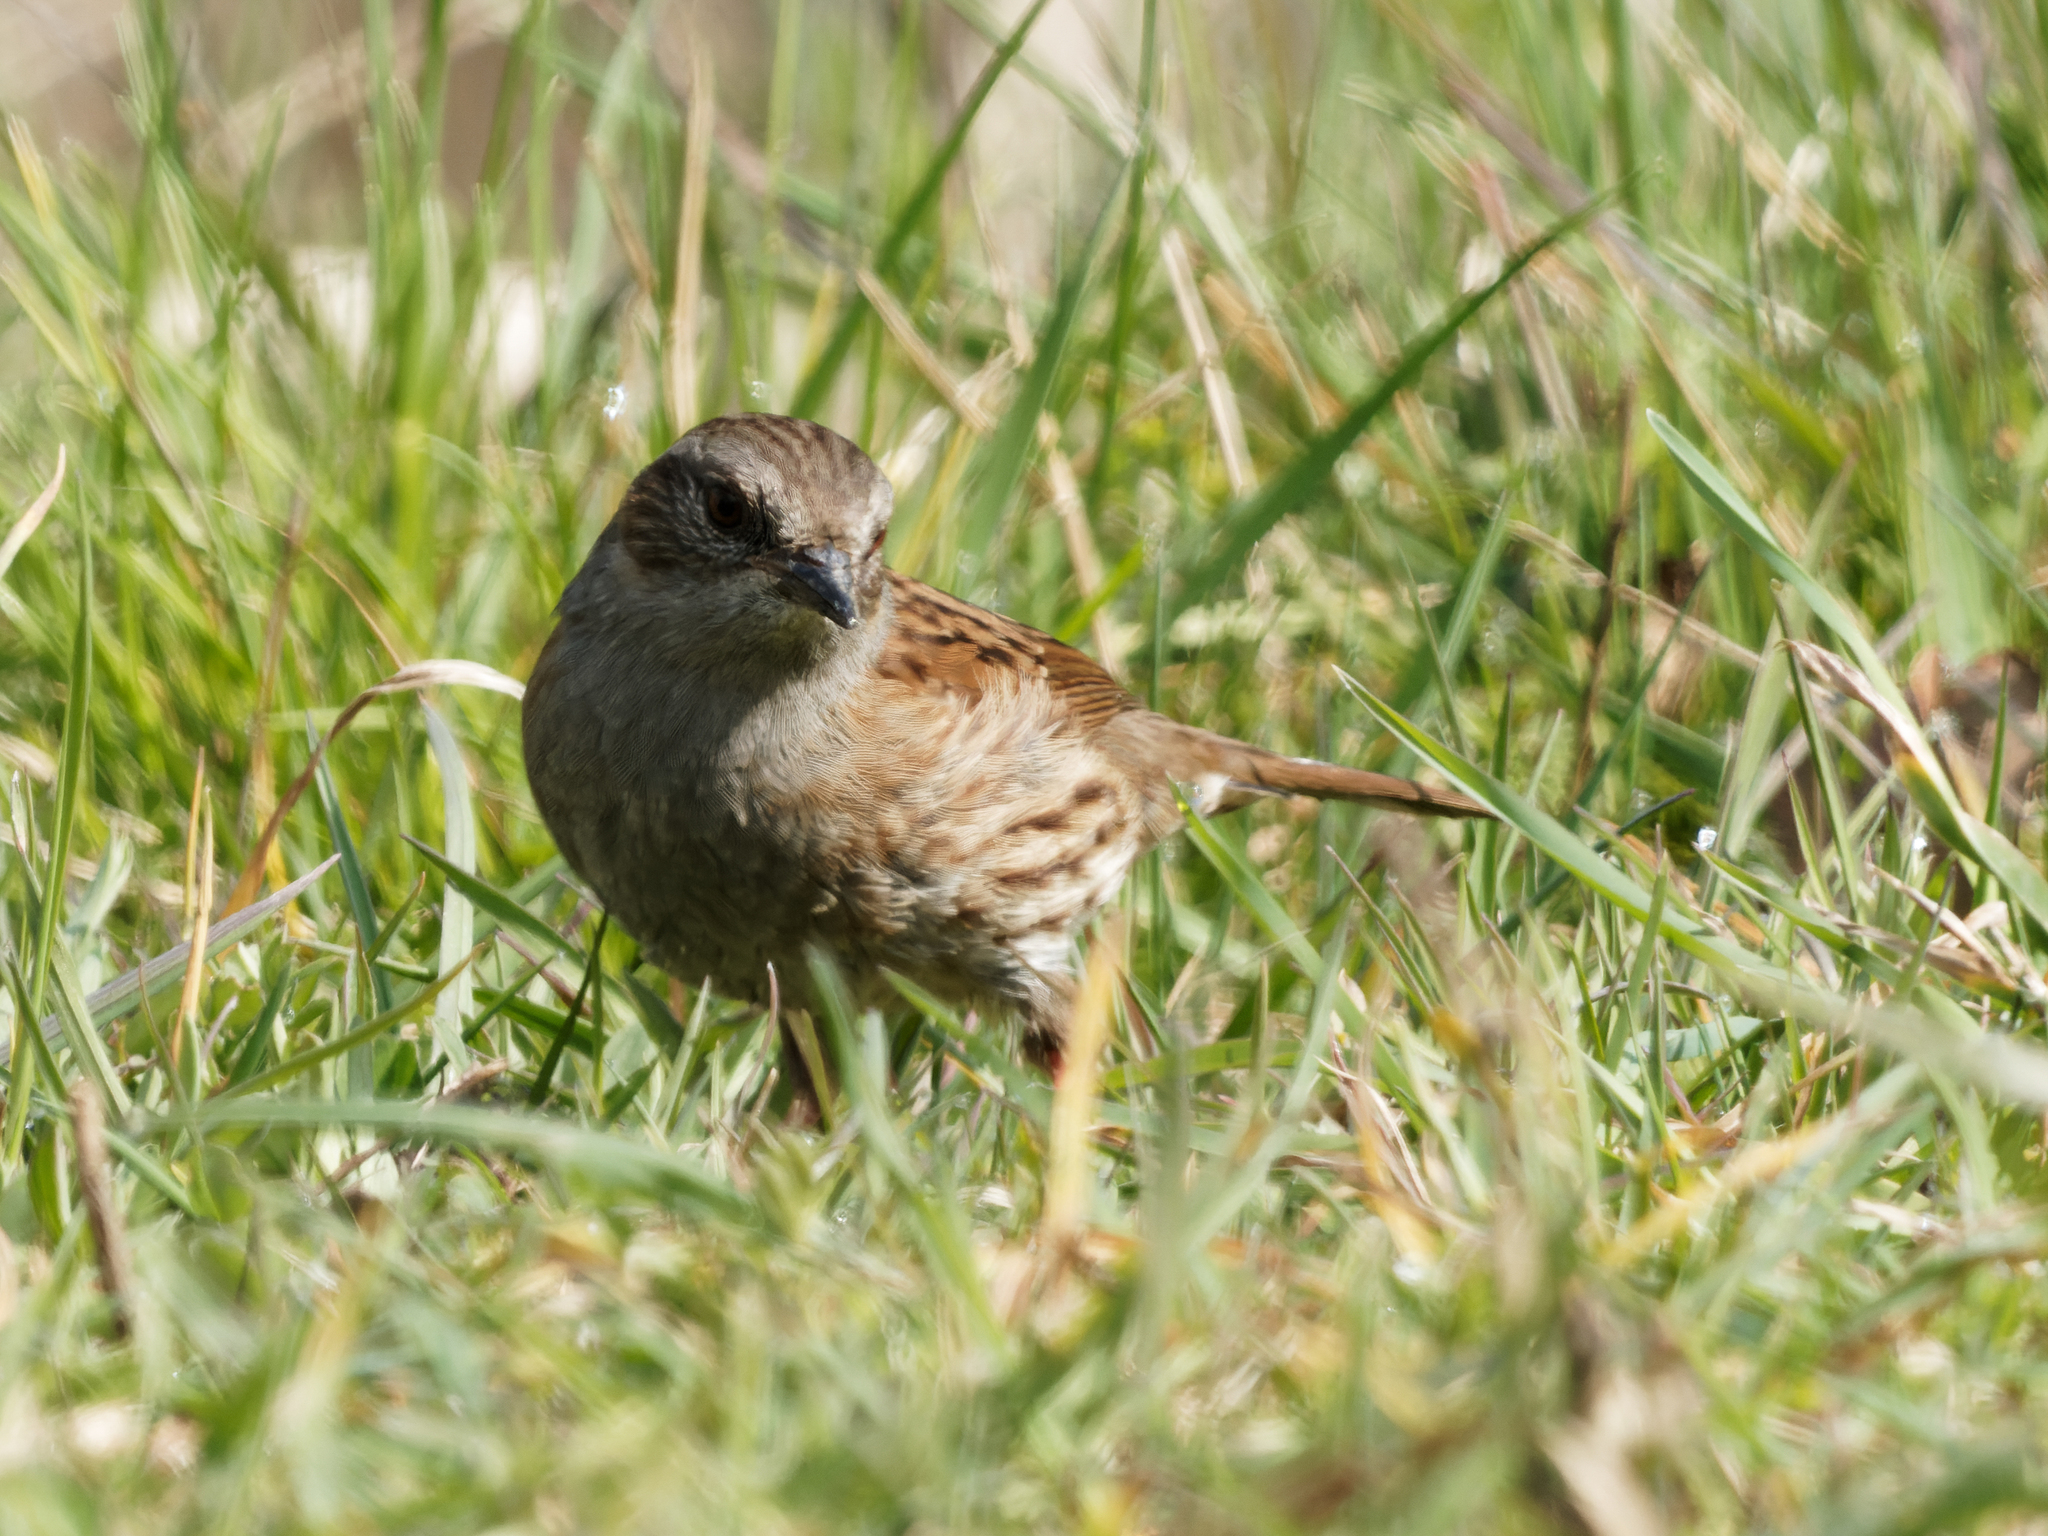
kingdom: Animalia
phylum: Chordata
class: Aves
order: Passeriformes
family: Prunellidae
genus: Prunella
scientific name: Prunella modularis
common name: Dunnock
